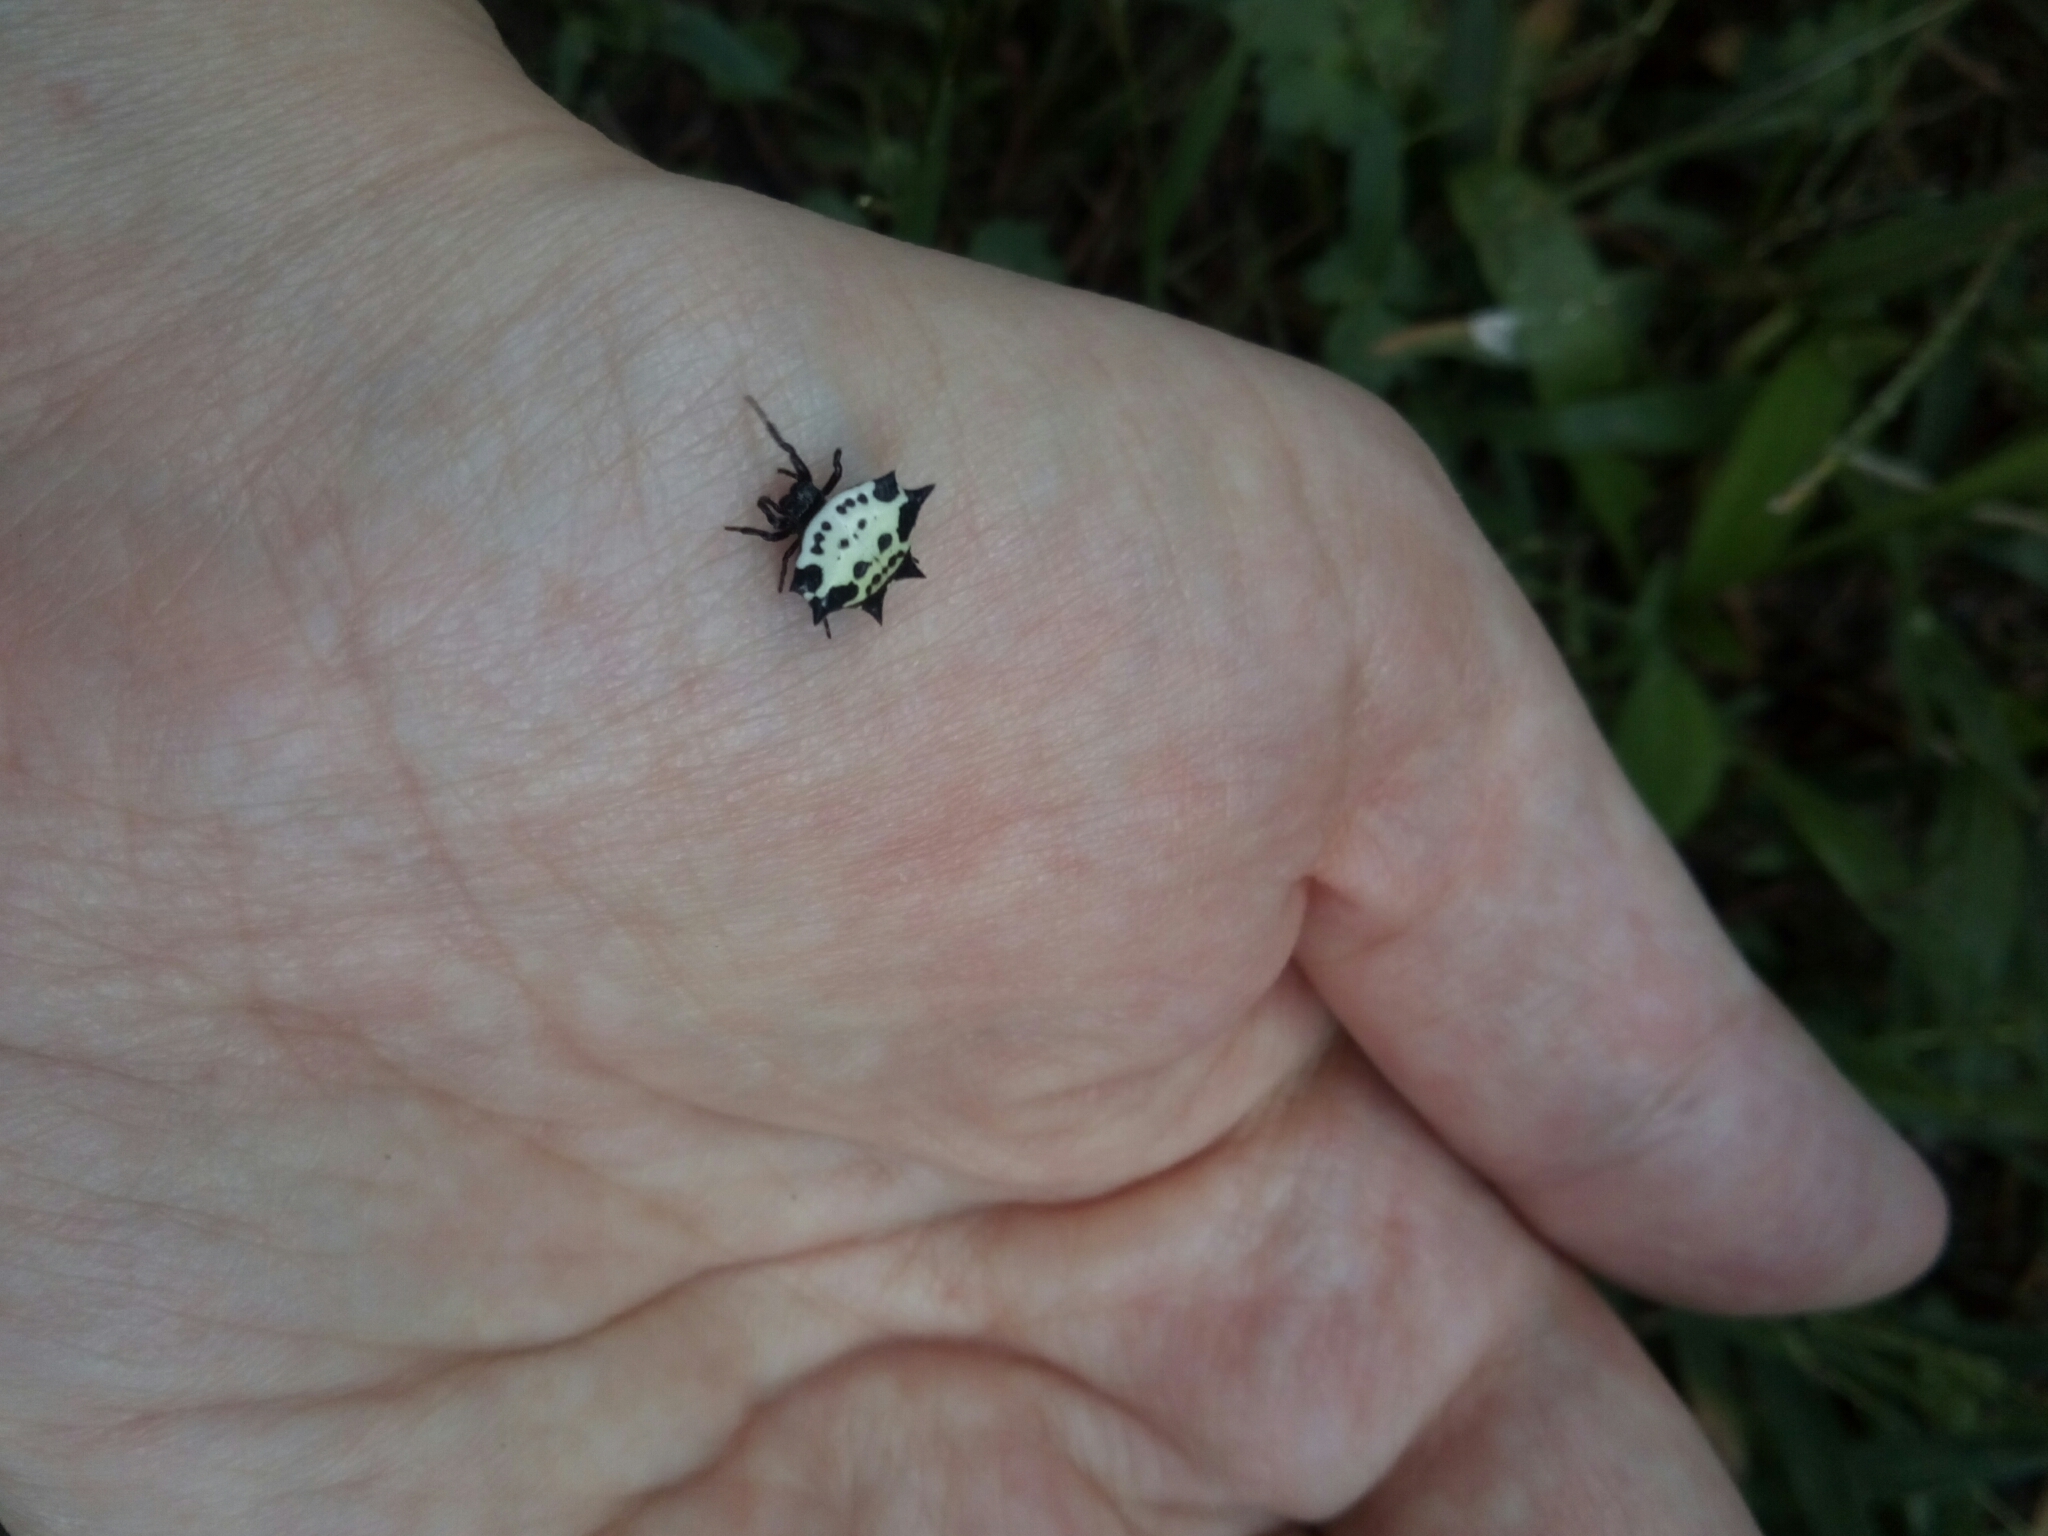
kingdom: Animalia
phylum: Arthropoda
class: Arachnida
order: Araneae
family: Araneidae
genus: Gasteracantha
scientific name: Gasteracantha cancriformis
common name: Orb weavers
